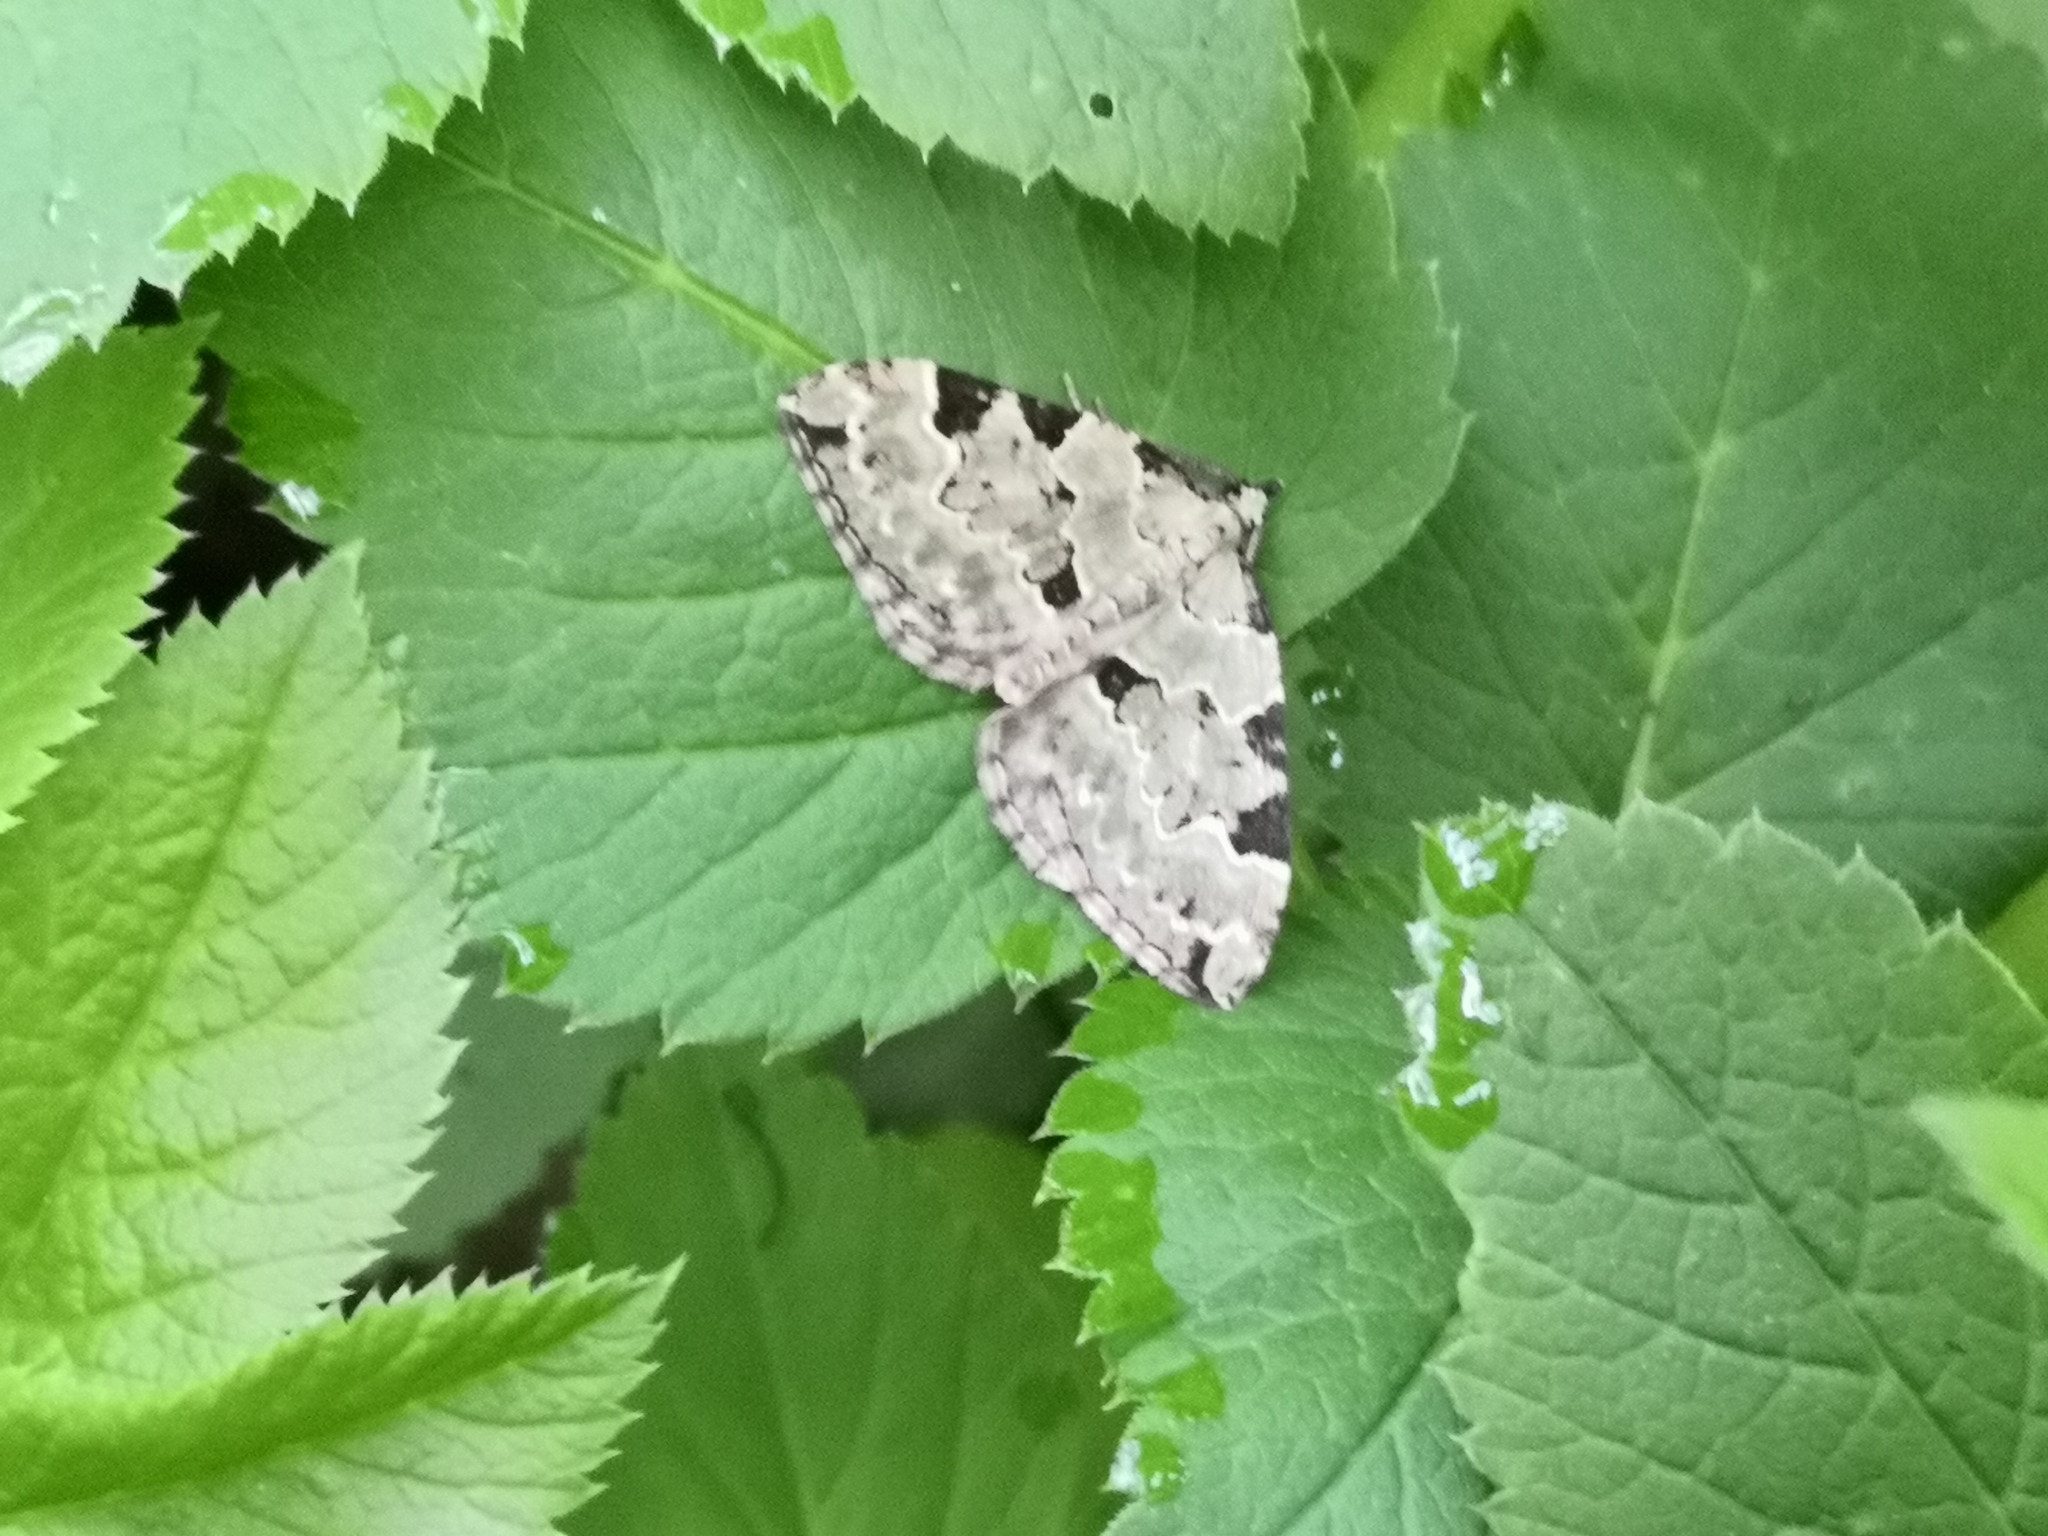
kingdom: Animalia
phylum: Arthropoda
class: Insecta
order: Lepidoptera
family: Geometridae
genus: Colostygia
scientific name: Colostygia pectinataria
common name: Green carpet
